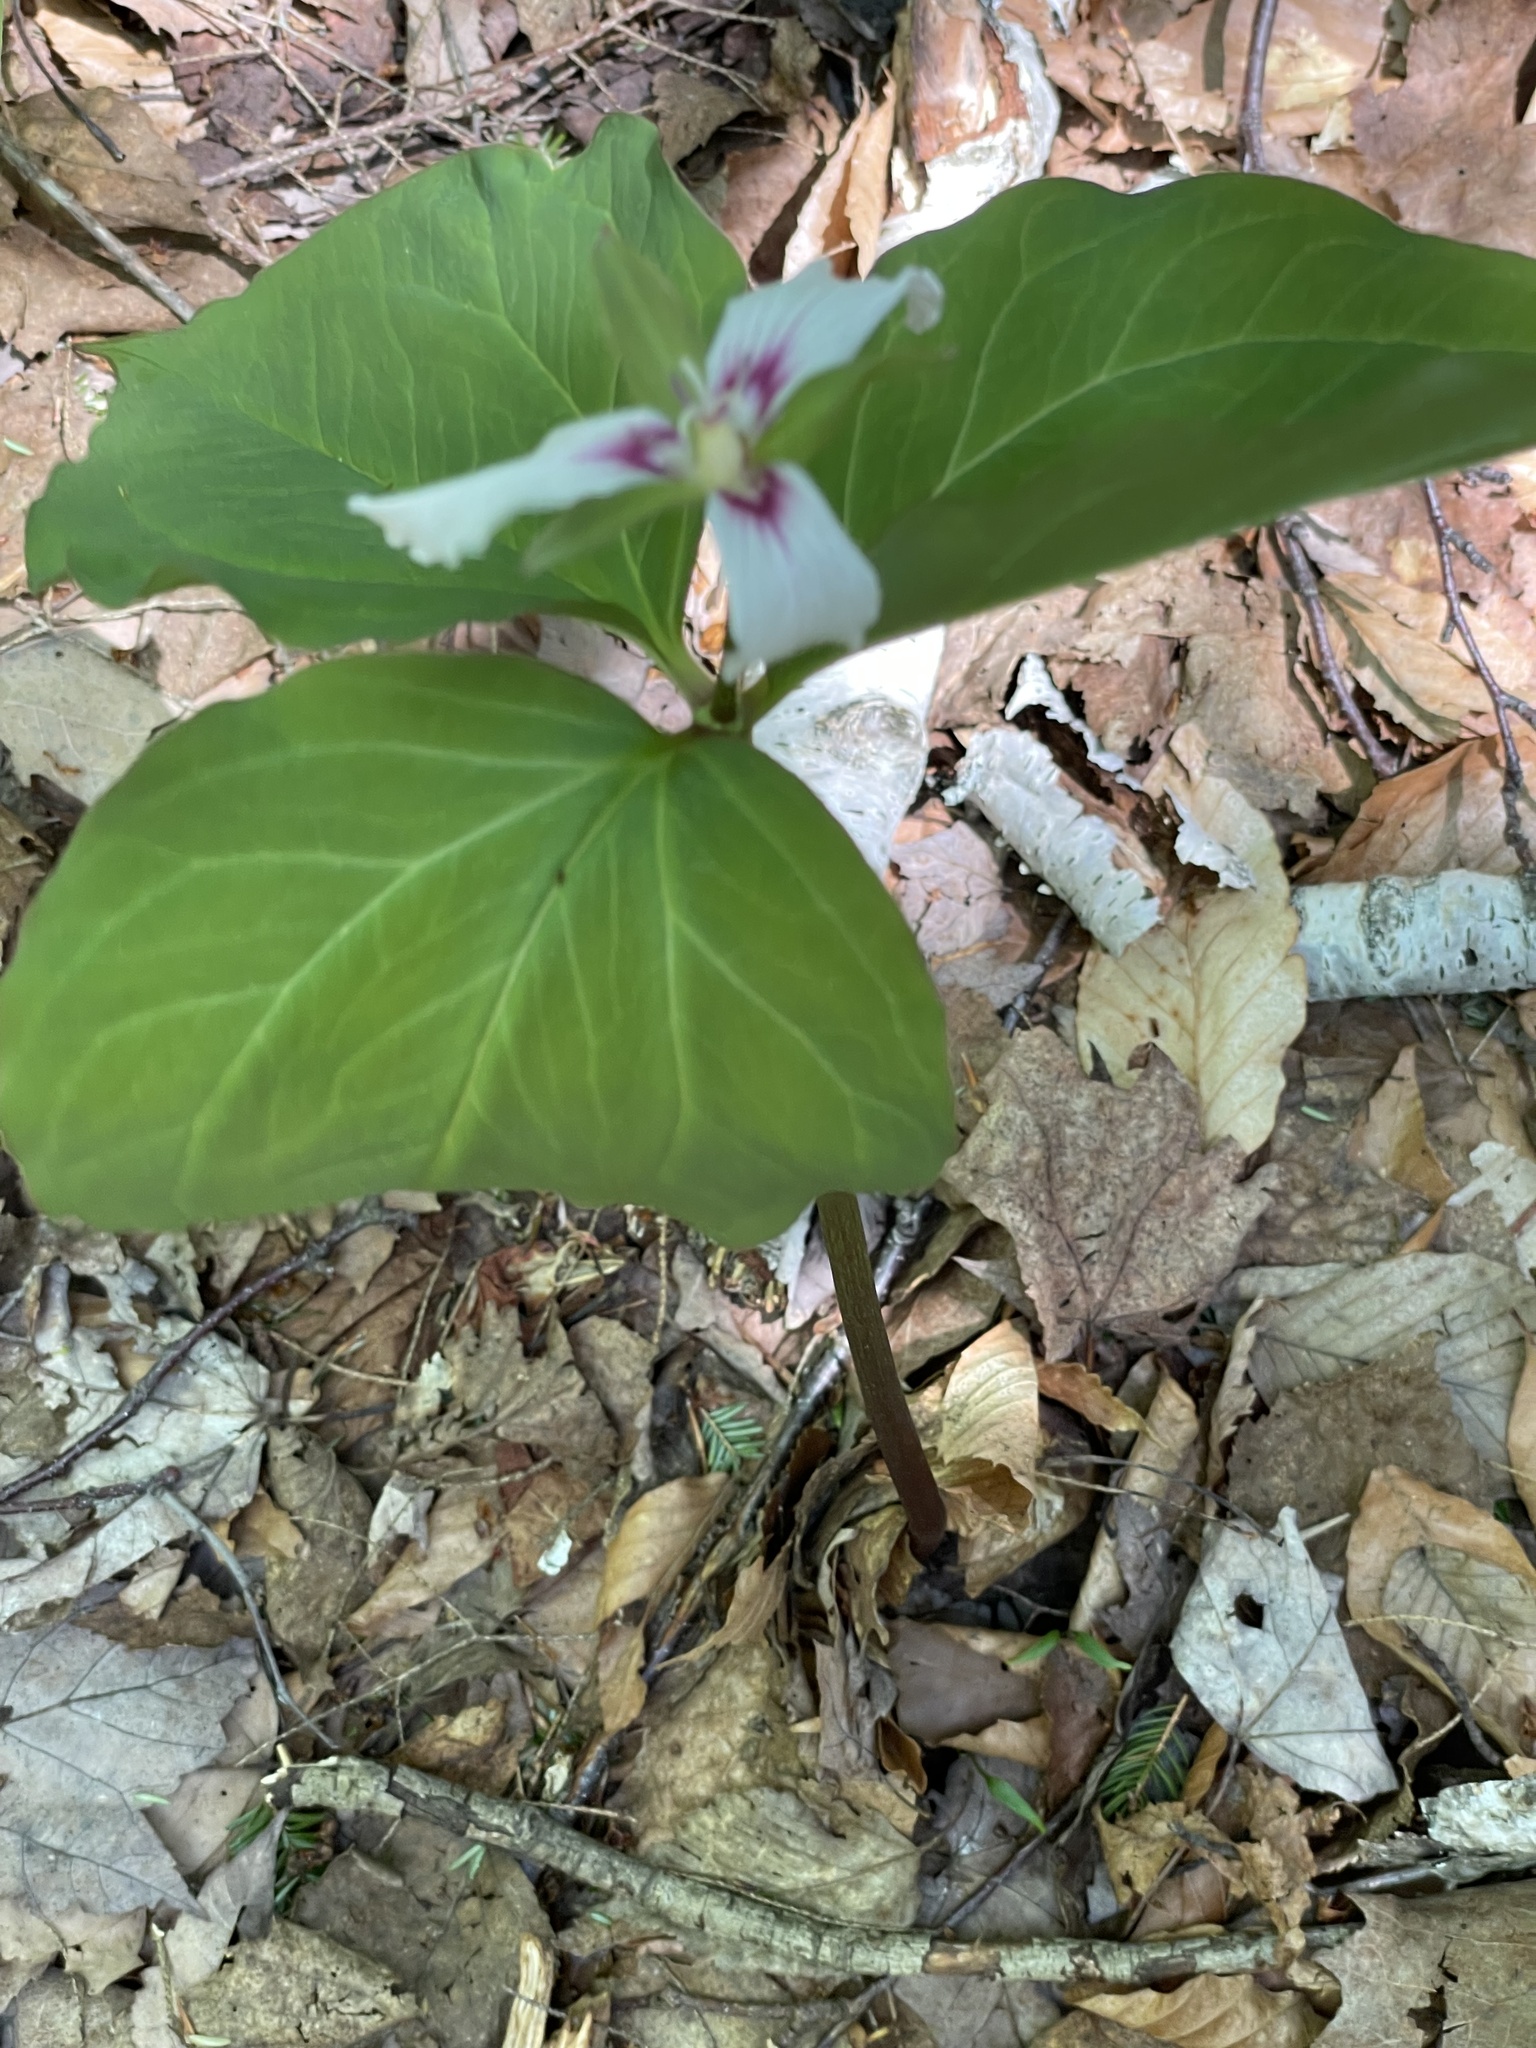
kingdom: Plantae
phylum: Tracheophyta
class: Liliopsida
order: Liliales
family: Melanthiaceae
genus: Trillium
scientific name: Trillium undulatum
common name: Paint trillium
